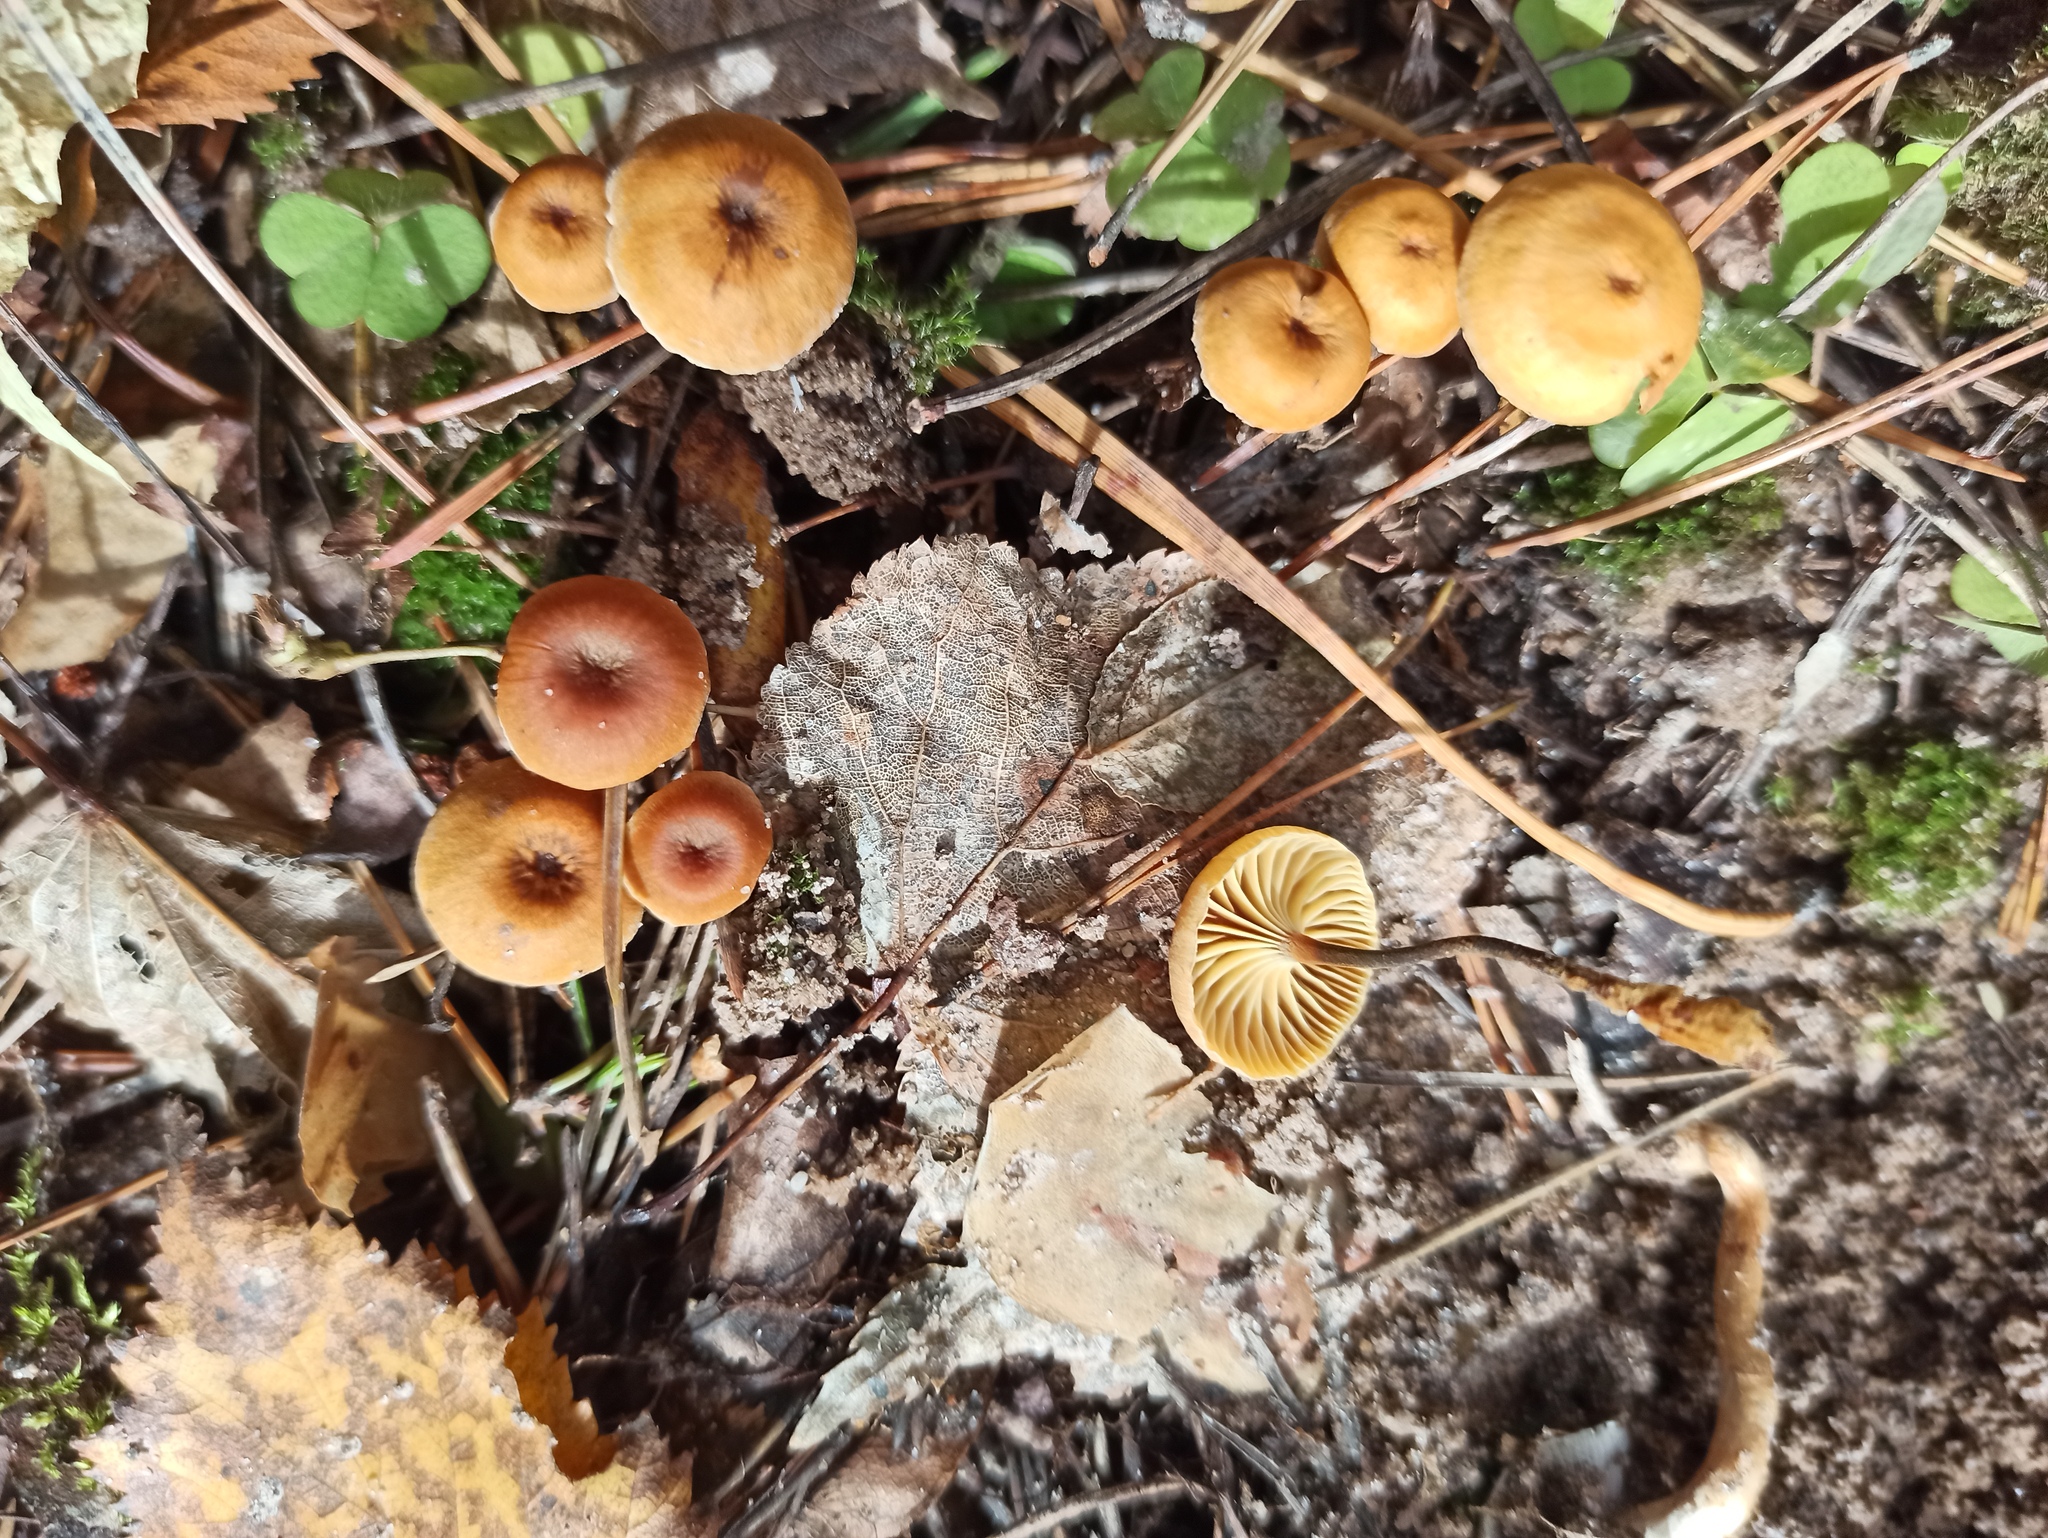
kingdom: Fungi
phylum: Basidiomycota
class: Agaricomycetes
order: Agaricales
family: Mycenaceae
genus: Xeromphalina
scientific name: Xeromphalina cauticinalis
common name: Pinelitter gingertail
